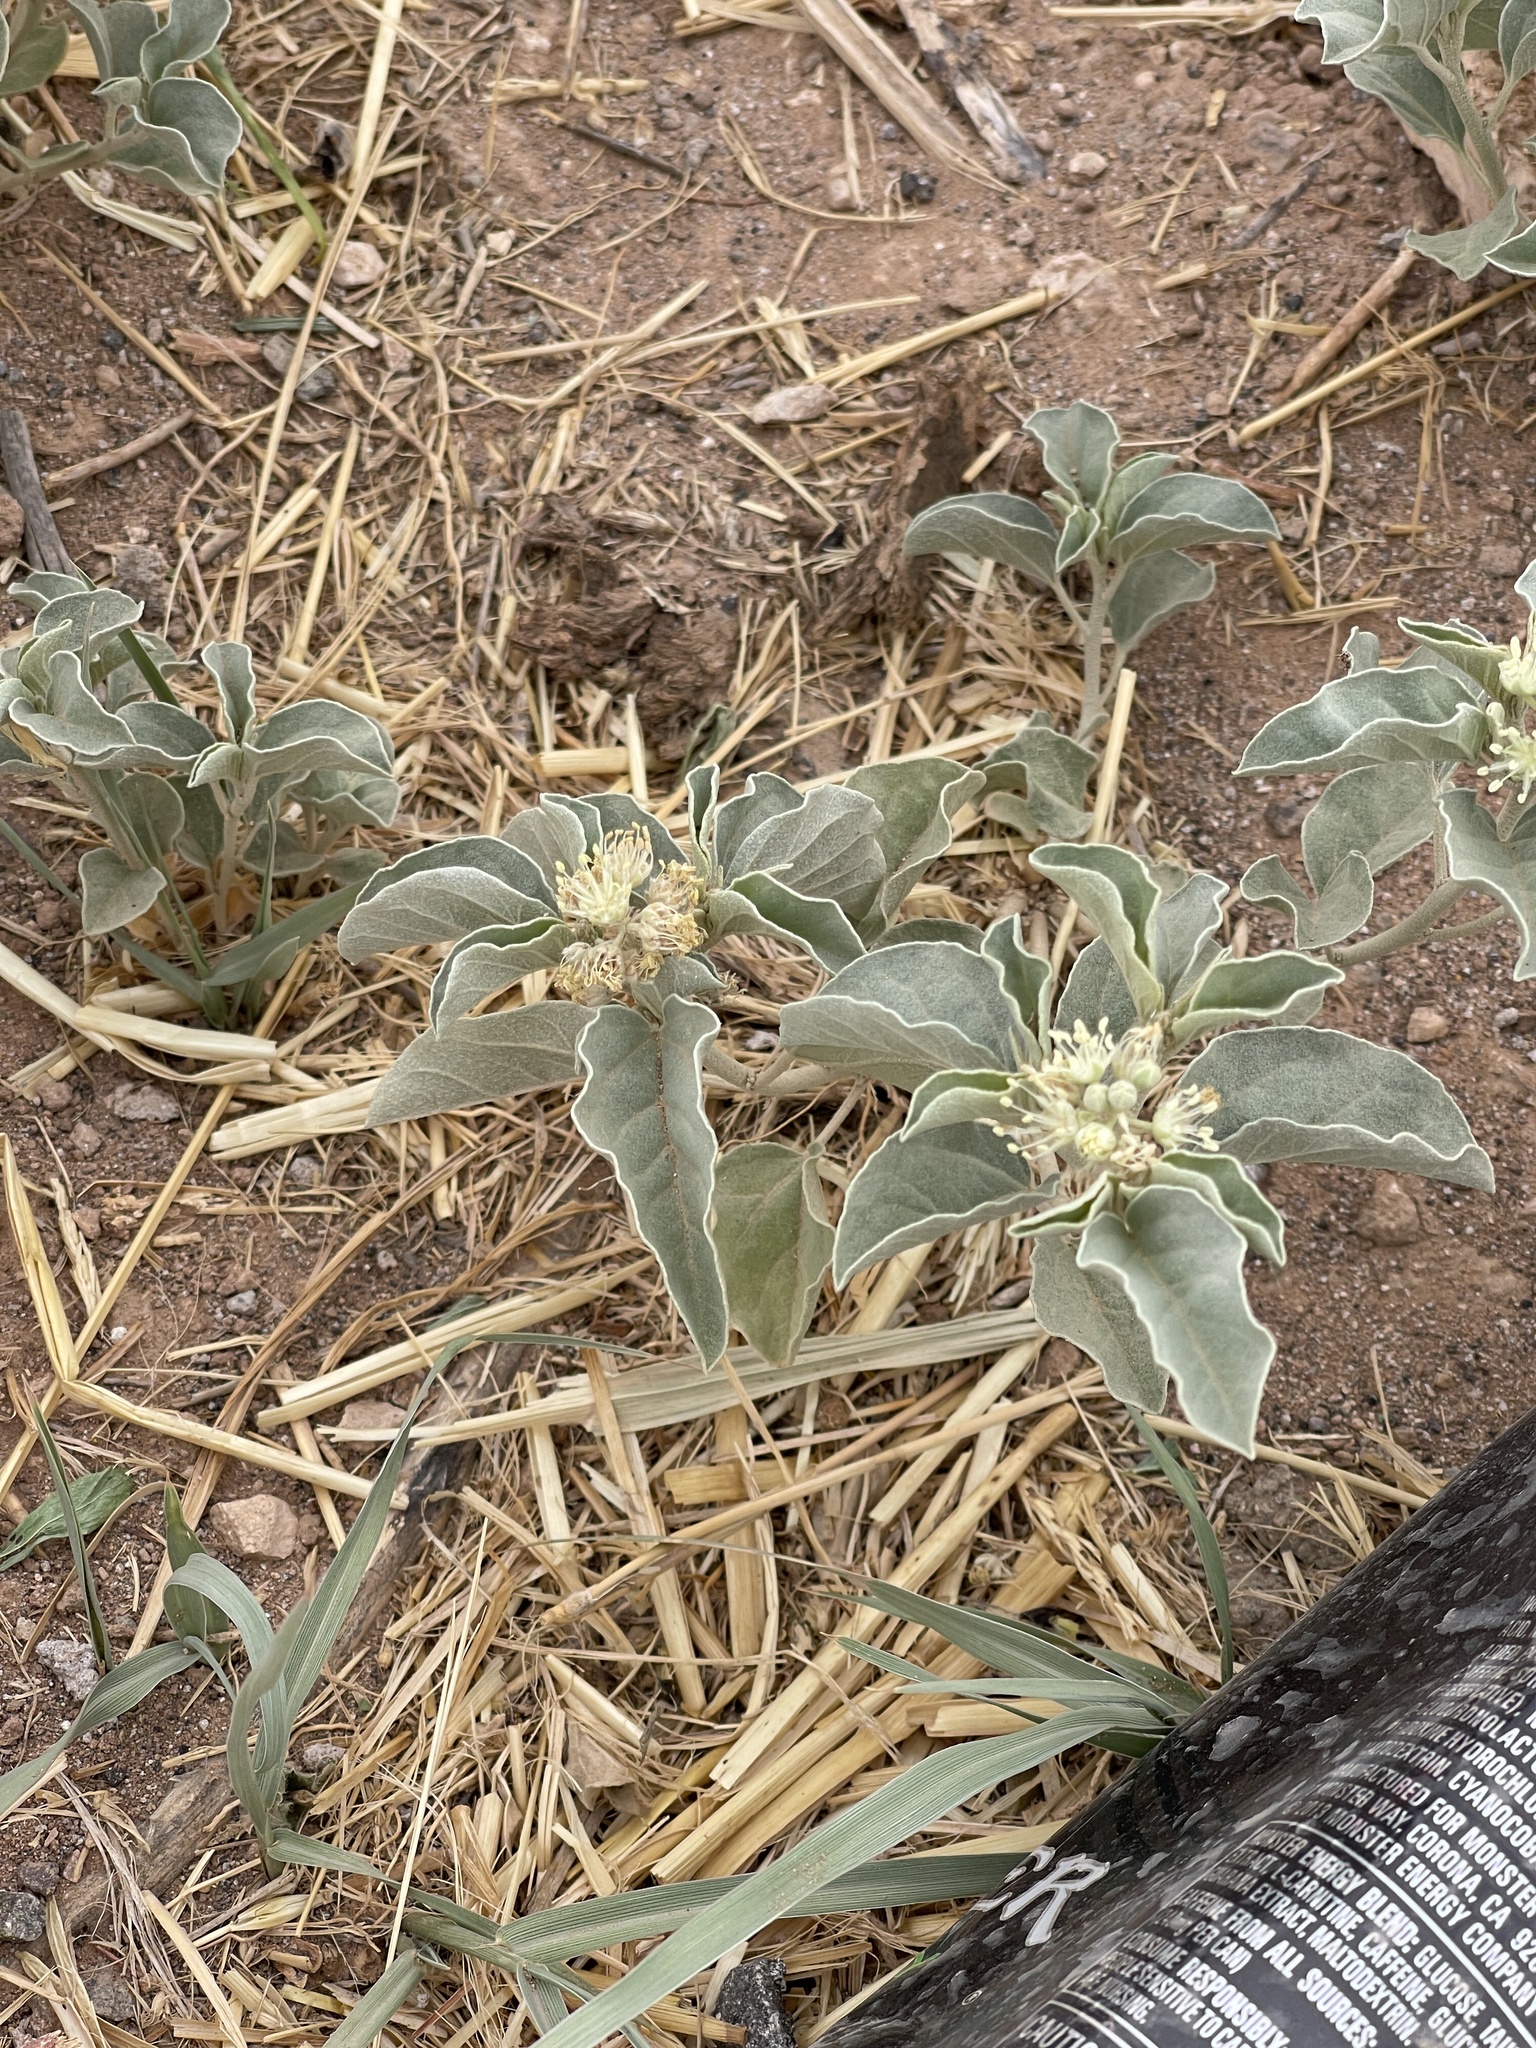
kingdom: Plantae
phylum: Tracheophyta
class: Magnoliopsida
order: Malpighiales
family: Euphorbiaceae
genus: Croton
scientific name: Croton pottsii
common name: Leatherweed
